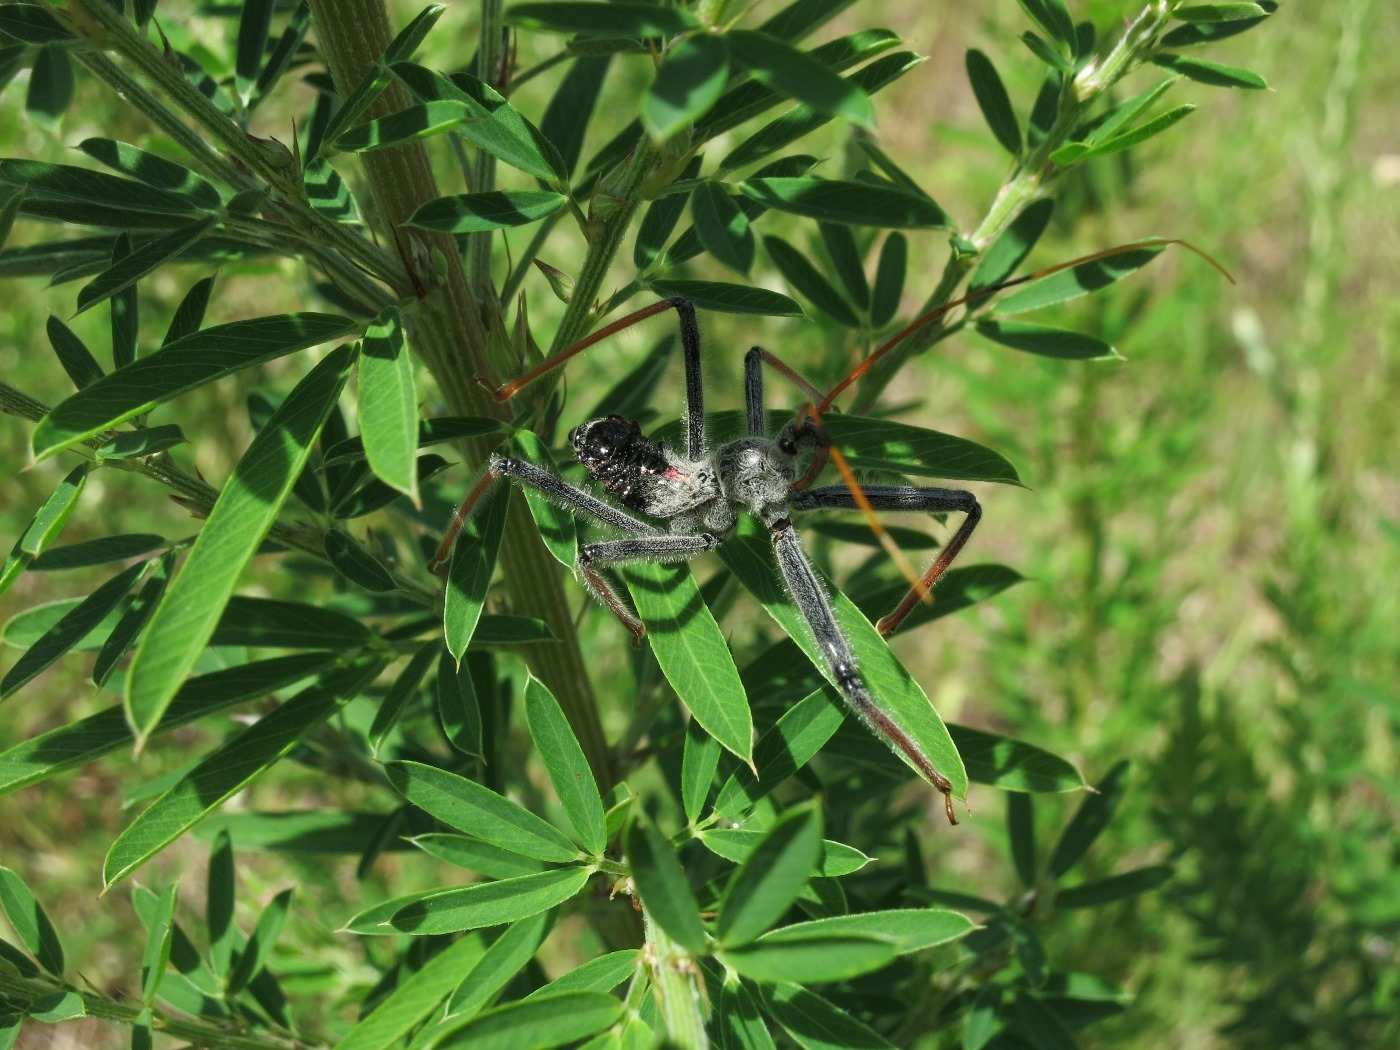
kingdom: Animalia
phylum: Arthropoda
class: Insecta
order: Hemiptera
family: Reduviidae
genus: Arilus
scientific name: Arilus cristatus
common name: North american wheel bug
